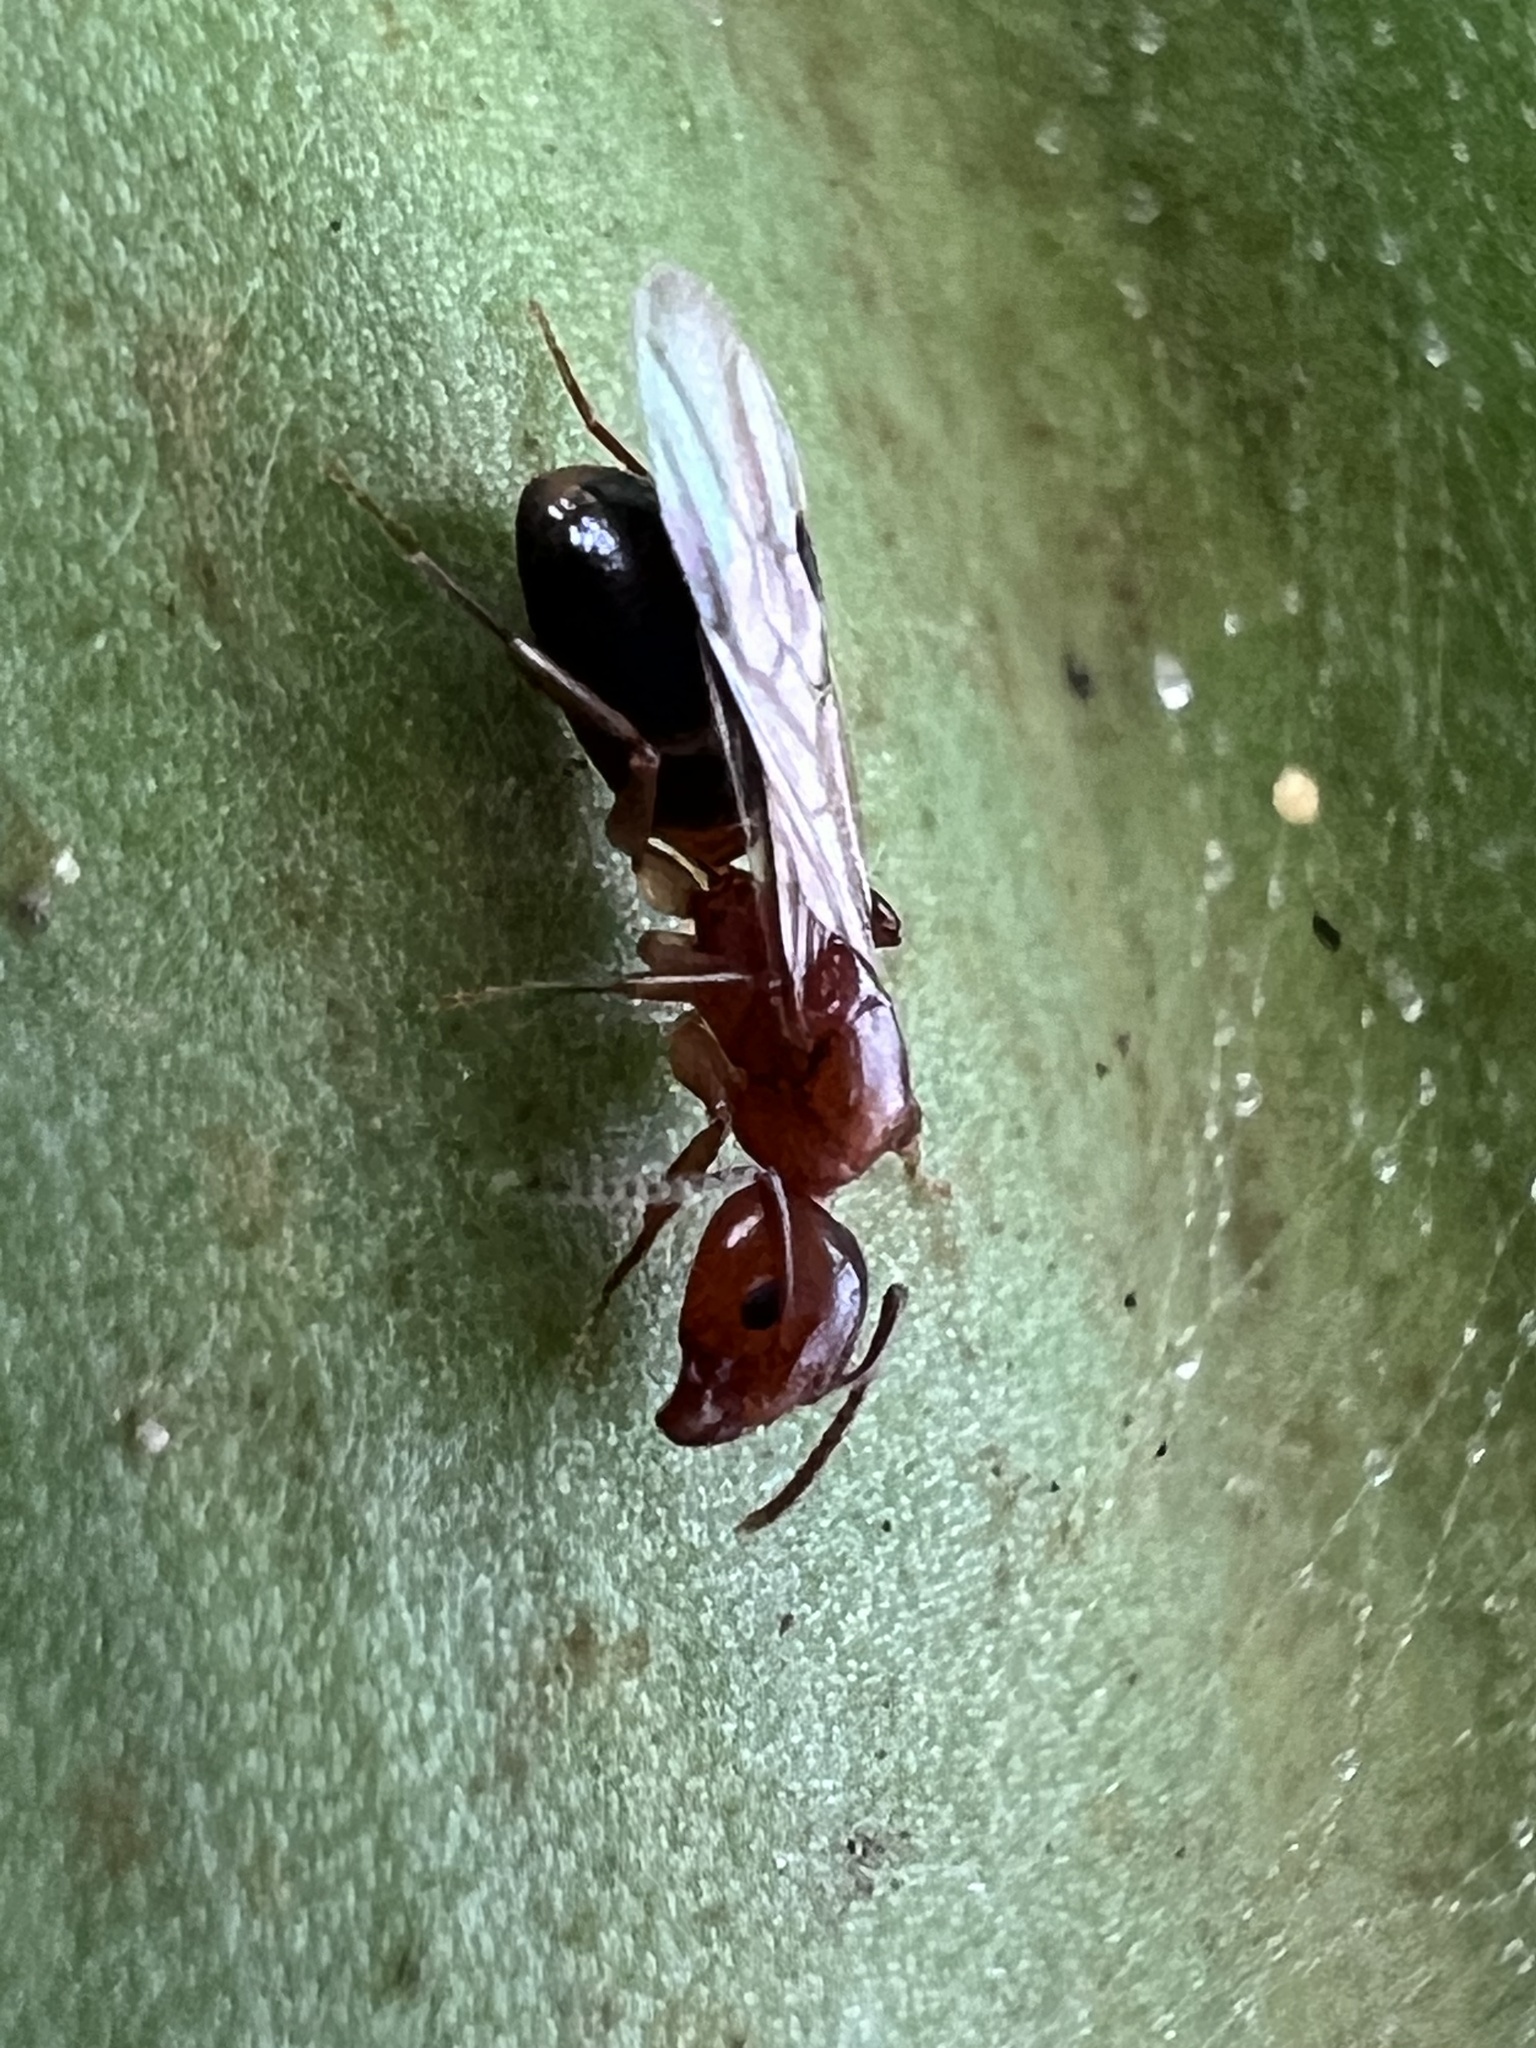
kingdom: Animalia
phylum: Arthropoda
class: Insecta
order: Hymenoptera
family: Formicidae
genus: Dolichoderus
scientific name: Dolichoderus lutosus
